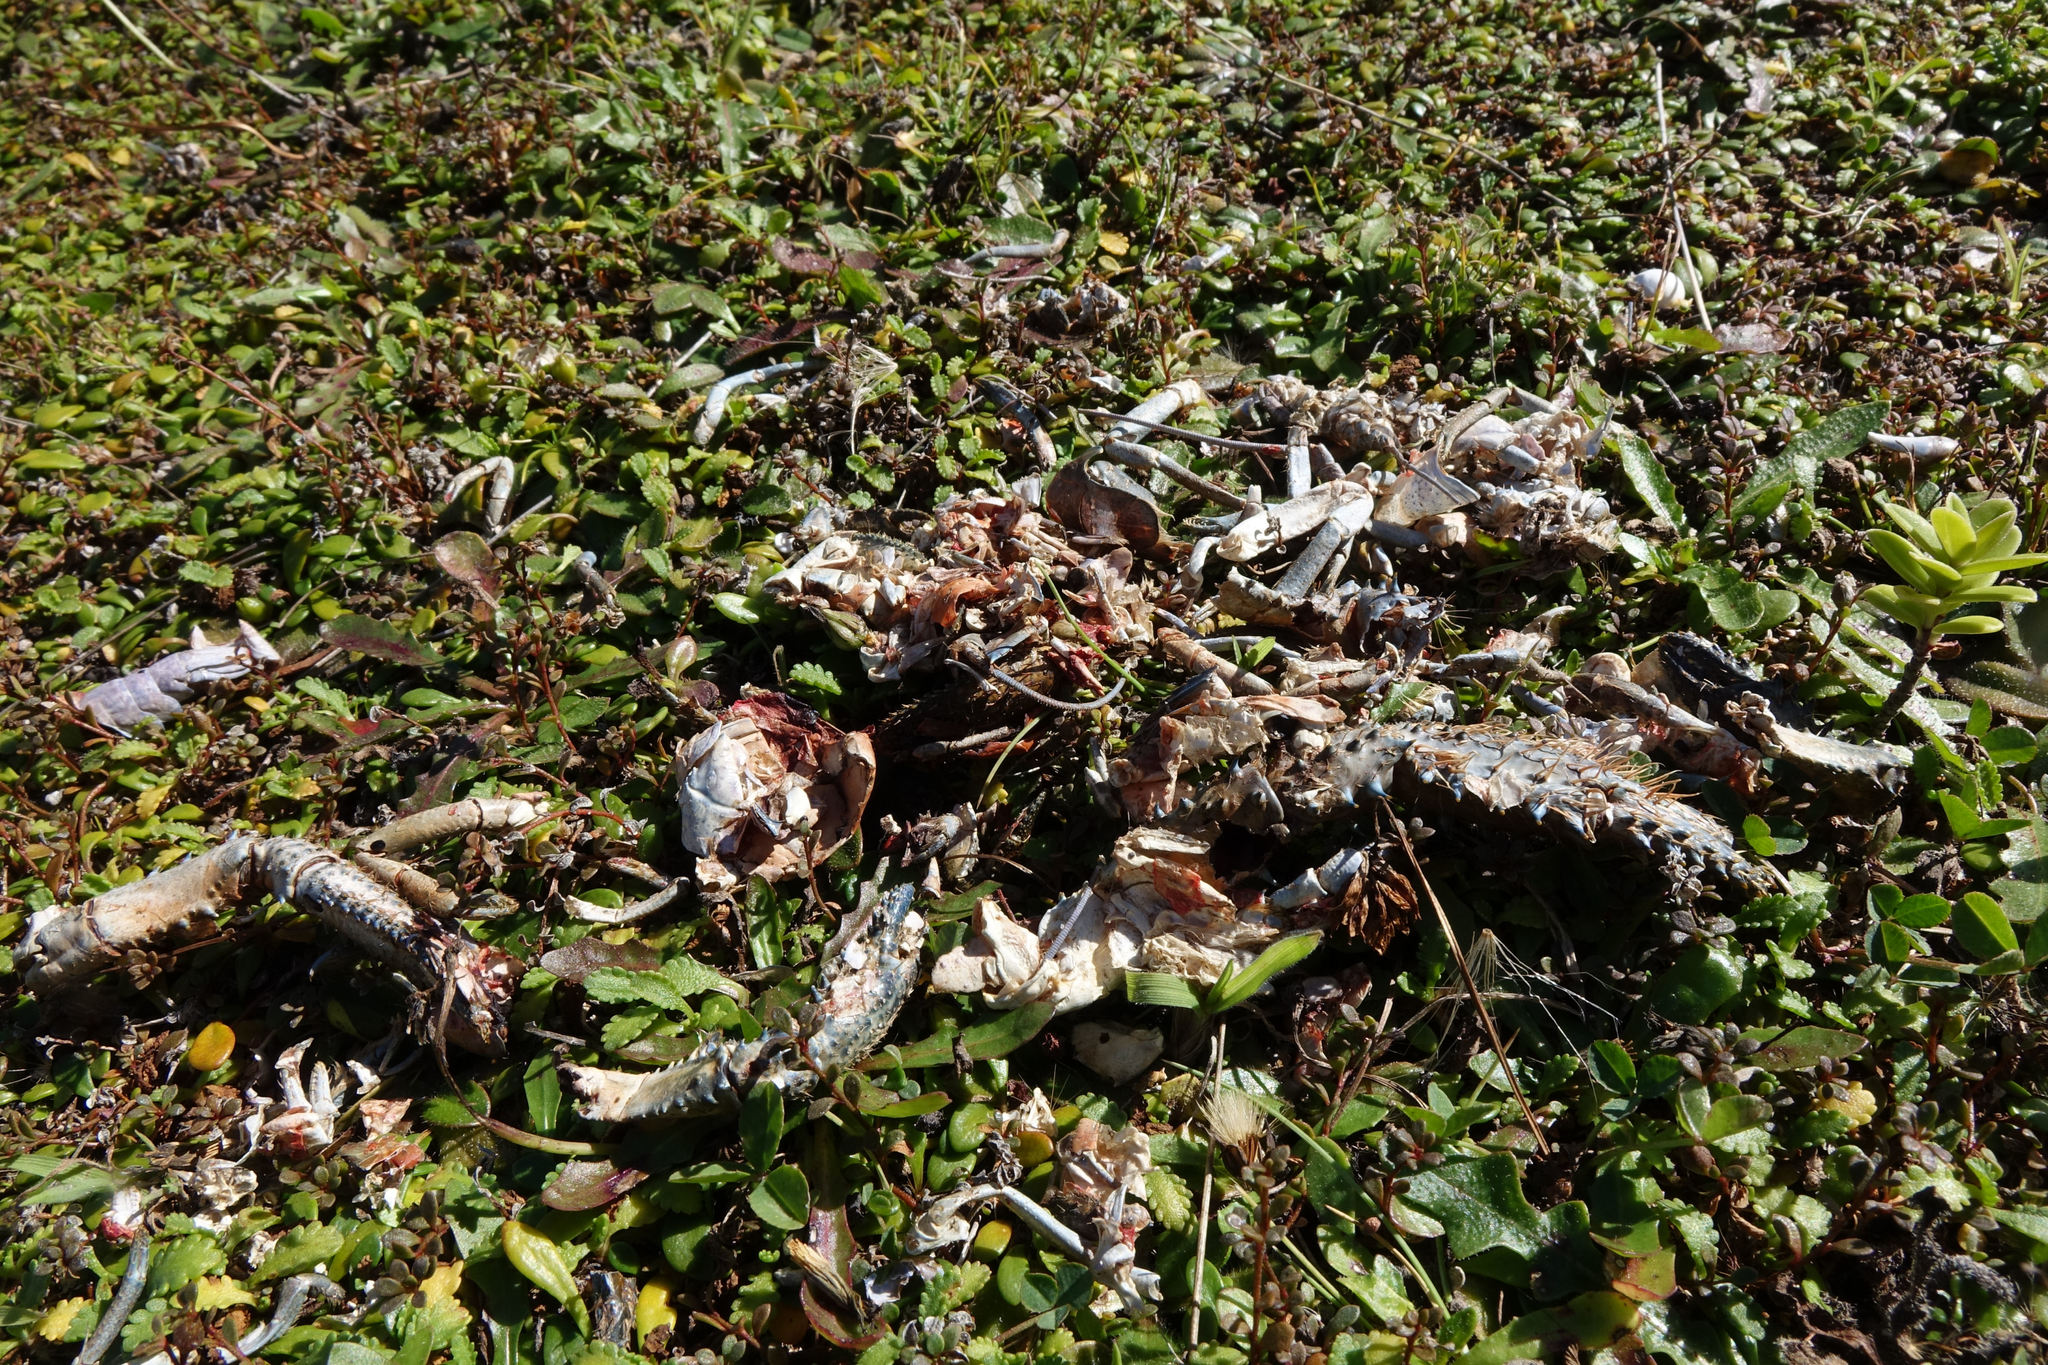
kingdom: Animalia
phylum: Arthropoda
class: Malacostraca
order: Decapoda
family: Parastacidae
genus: Paranephrops
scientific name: Paranephrops zealandicus
